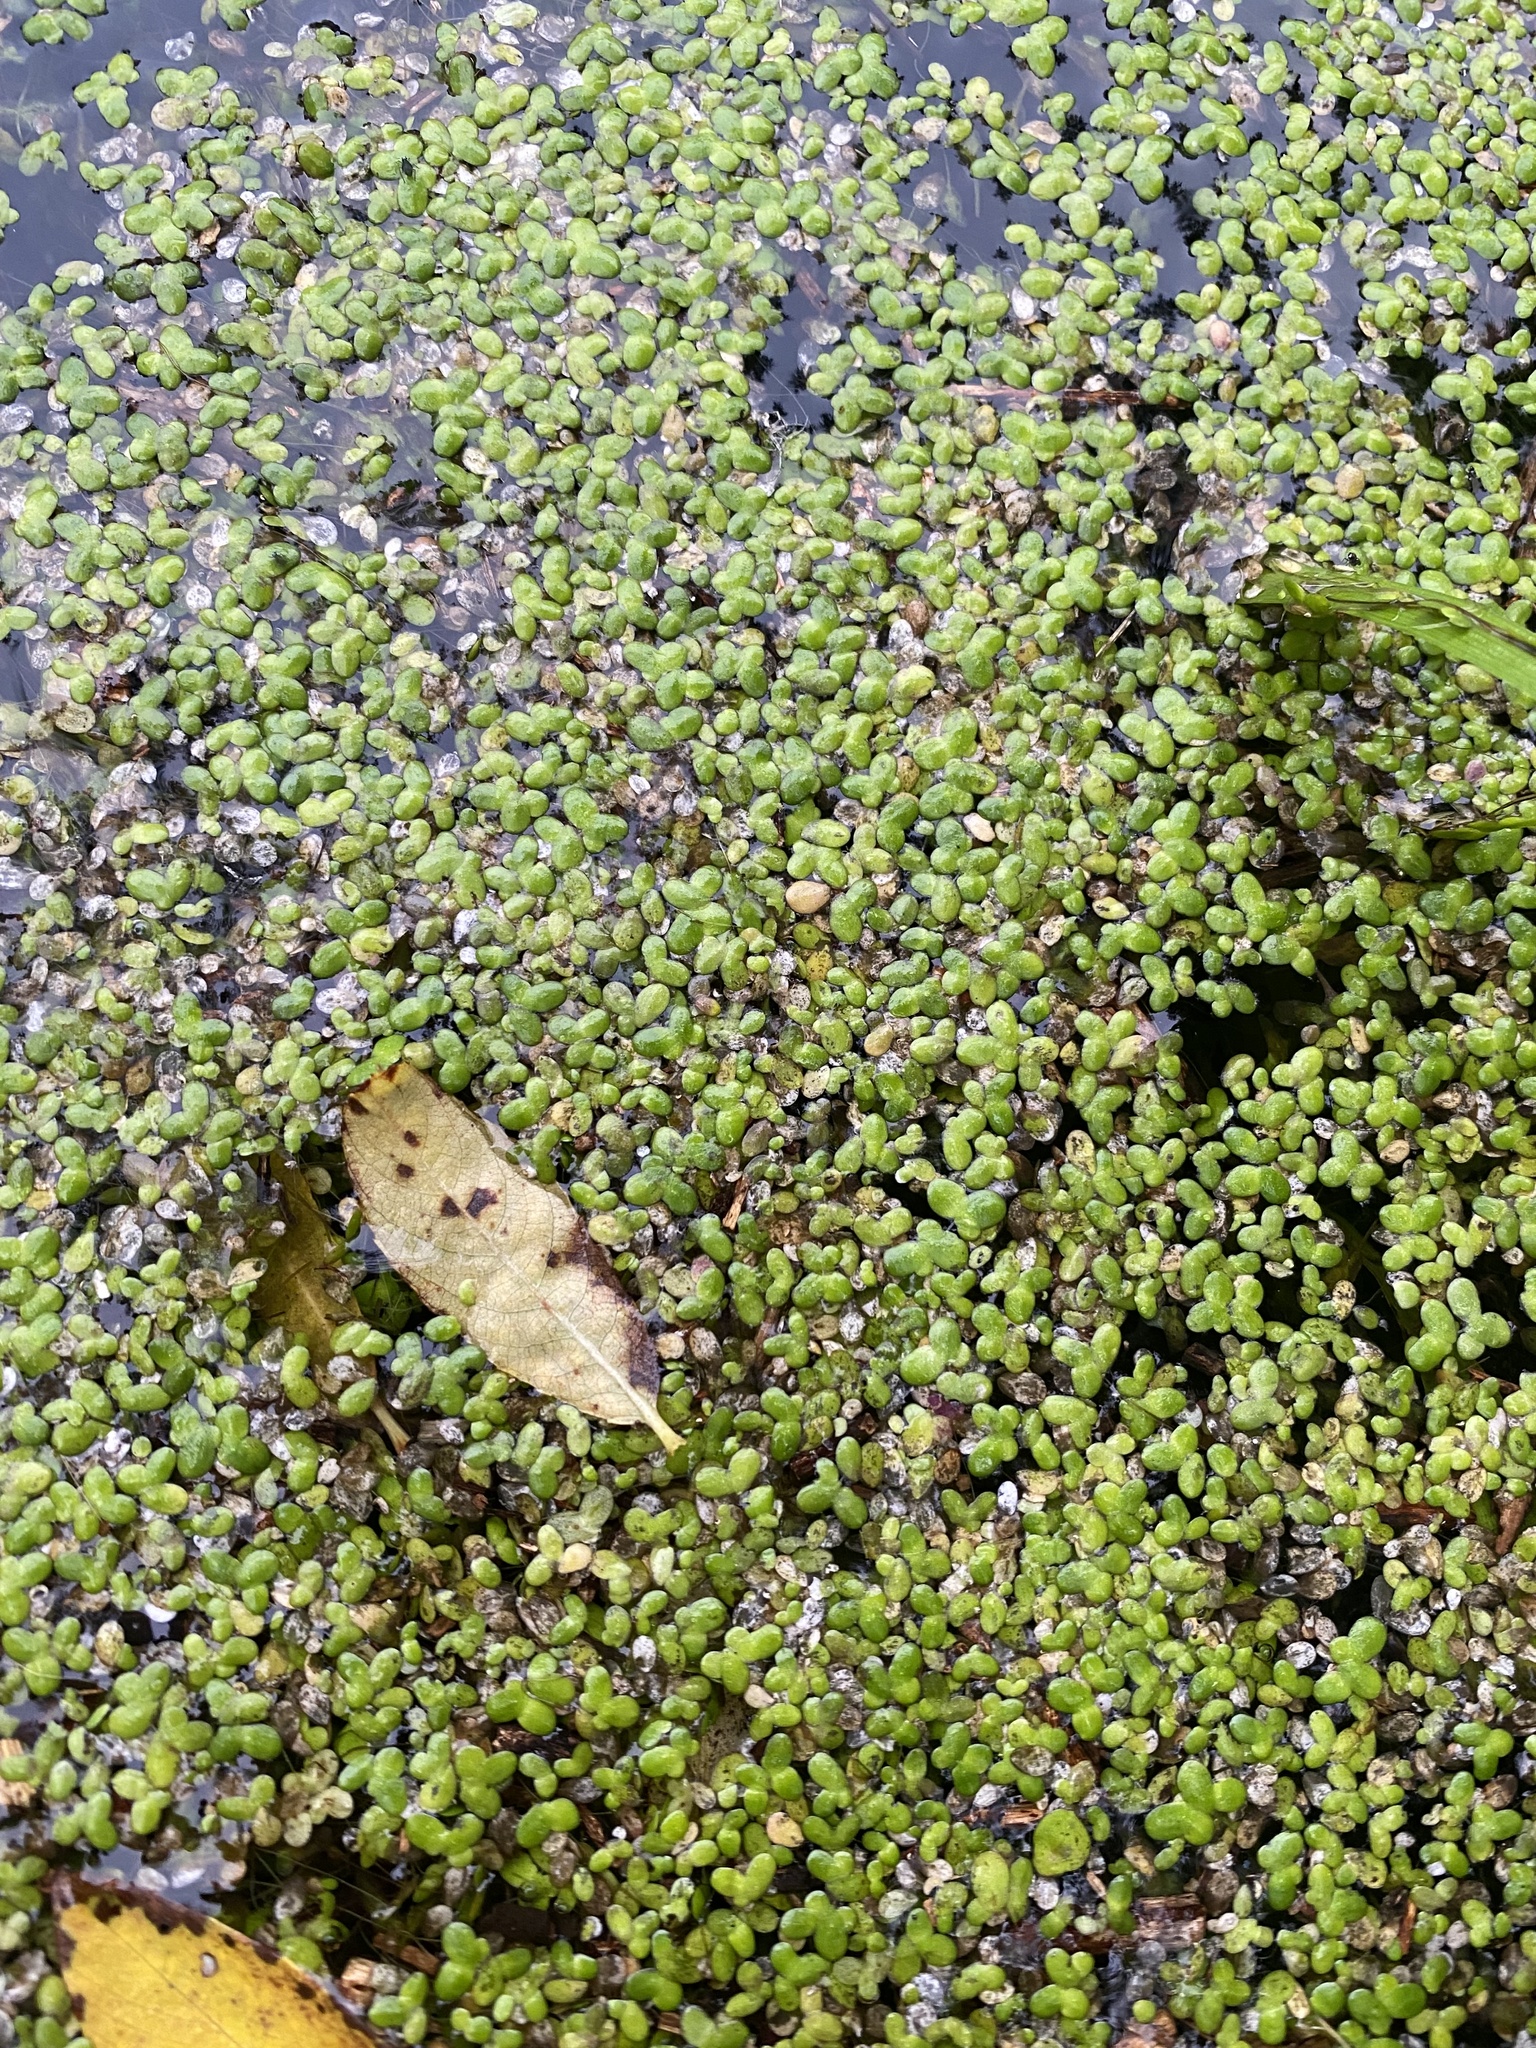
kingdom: Plantae
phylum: Tracheophyta
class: Liliopsida
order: Alismatales
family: Araceae
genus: Lemna
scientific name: Lemna minor
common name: Common duckweed
